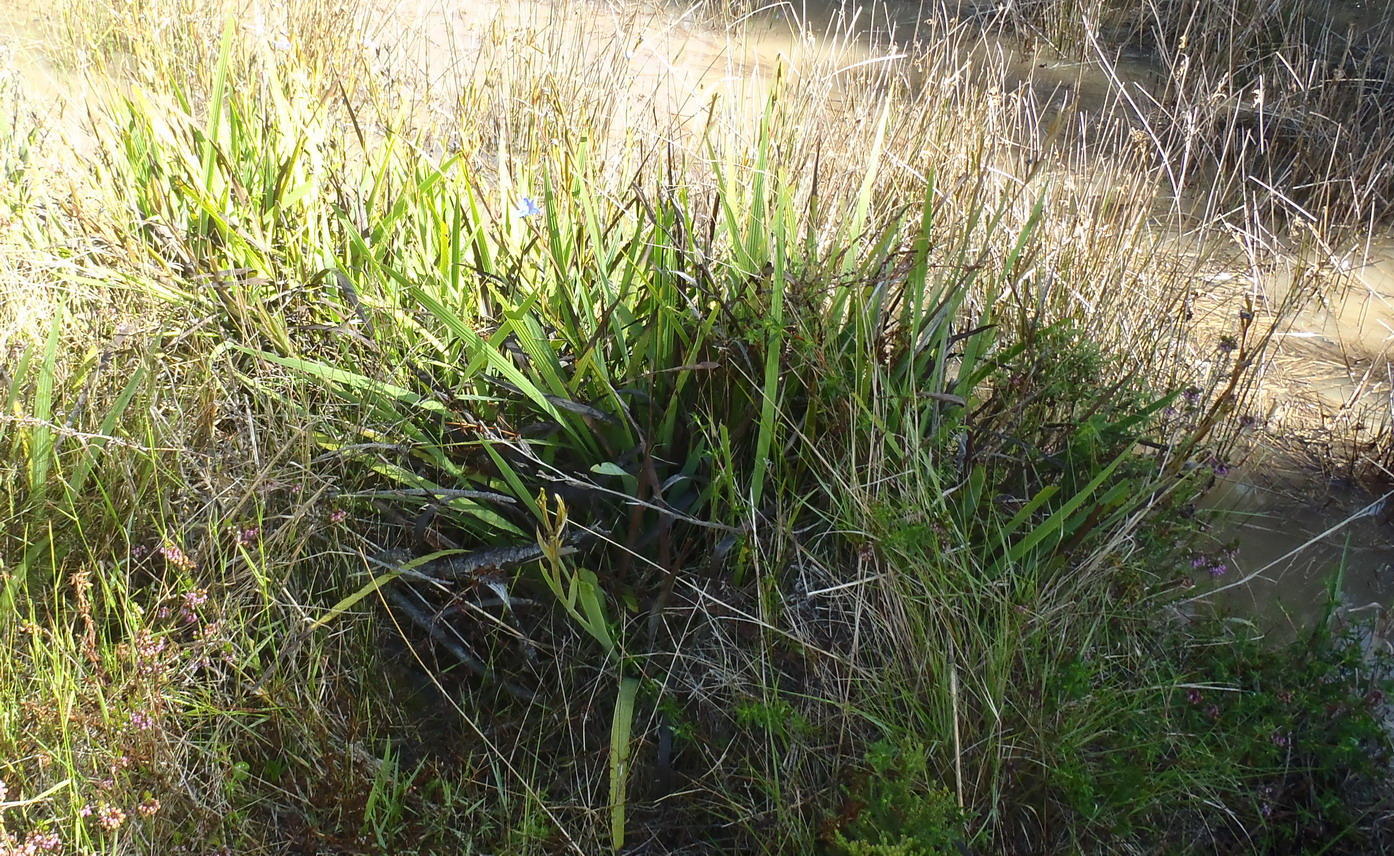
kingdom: Plantae
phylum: Tracheophyta
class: Liliopsida
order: Asparagales
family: Iridaceae
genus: Aristea
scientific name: Aristea ecklonii
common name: Blue corn-lily
